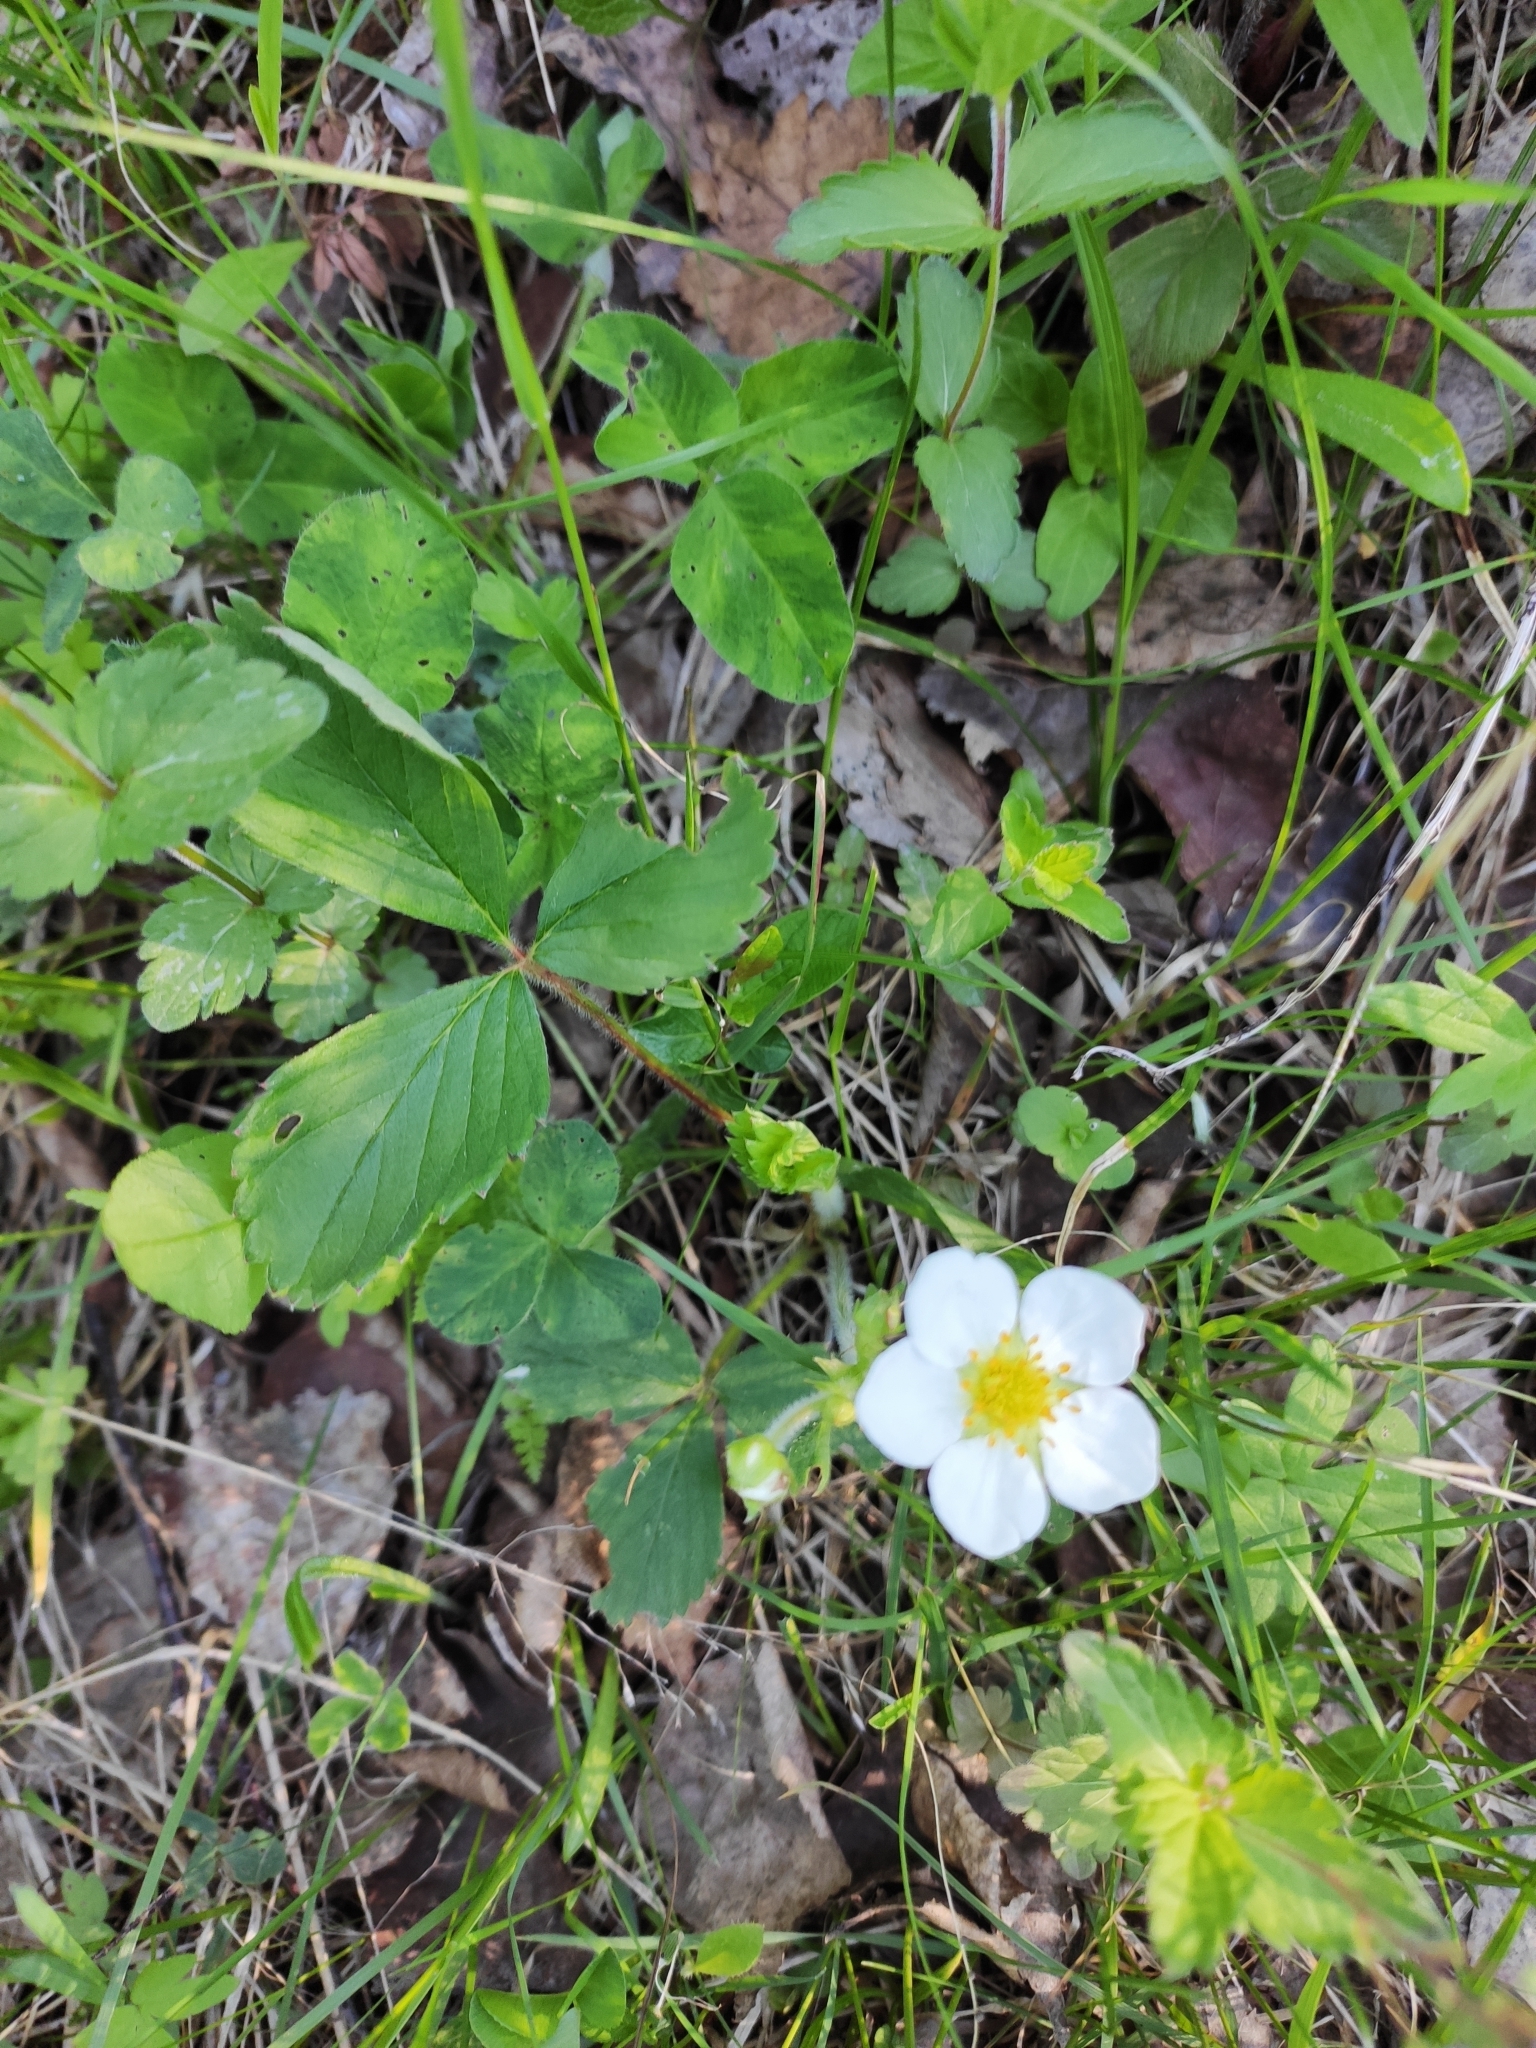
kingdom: Plantae
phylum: Tracheophyta
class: Magnoliopsida
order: Rosales
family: Rosaceae
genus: Fragaria
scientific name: Fragaria viridis
